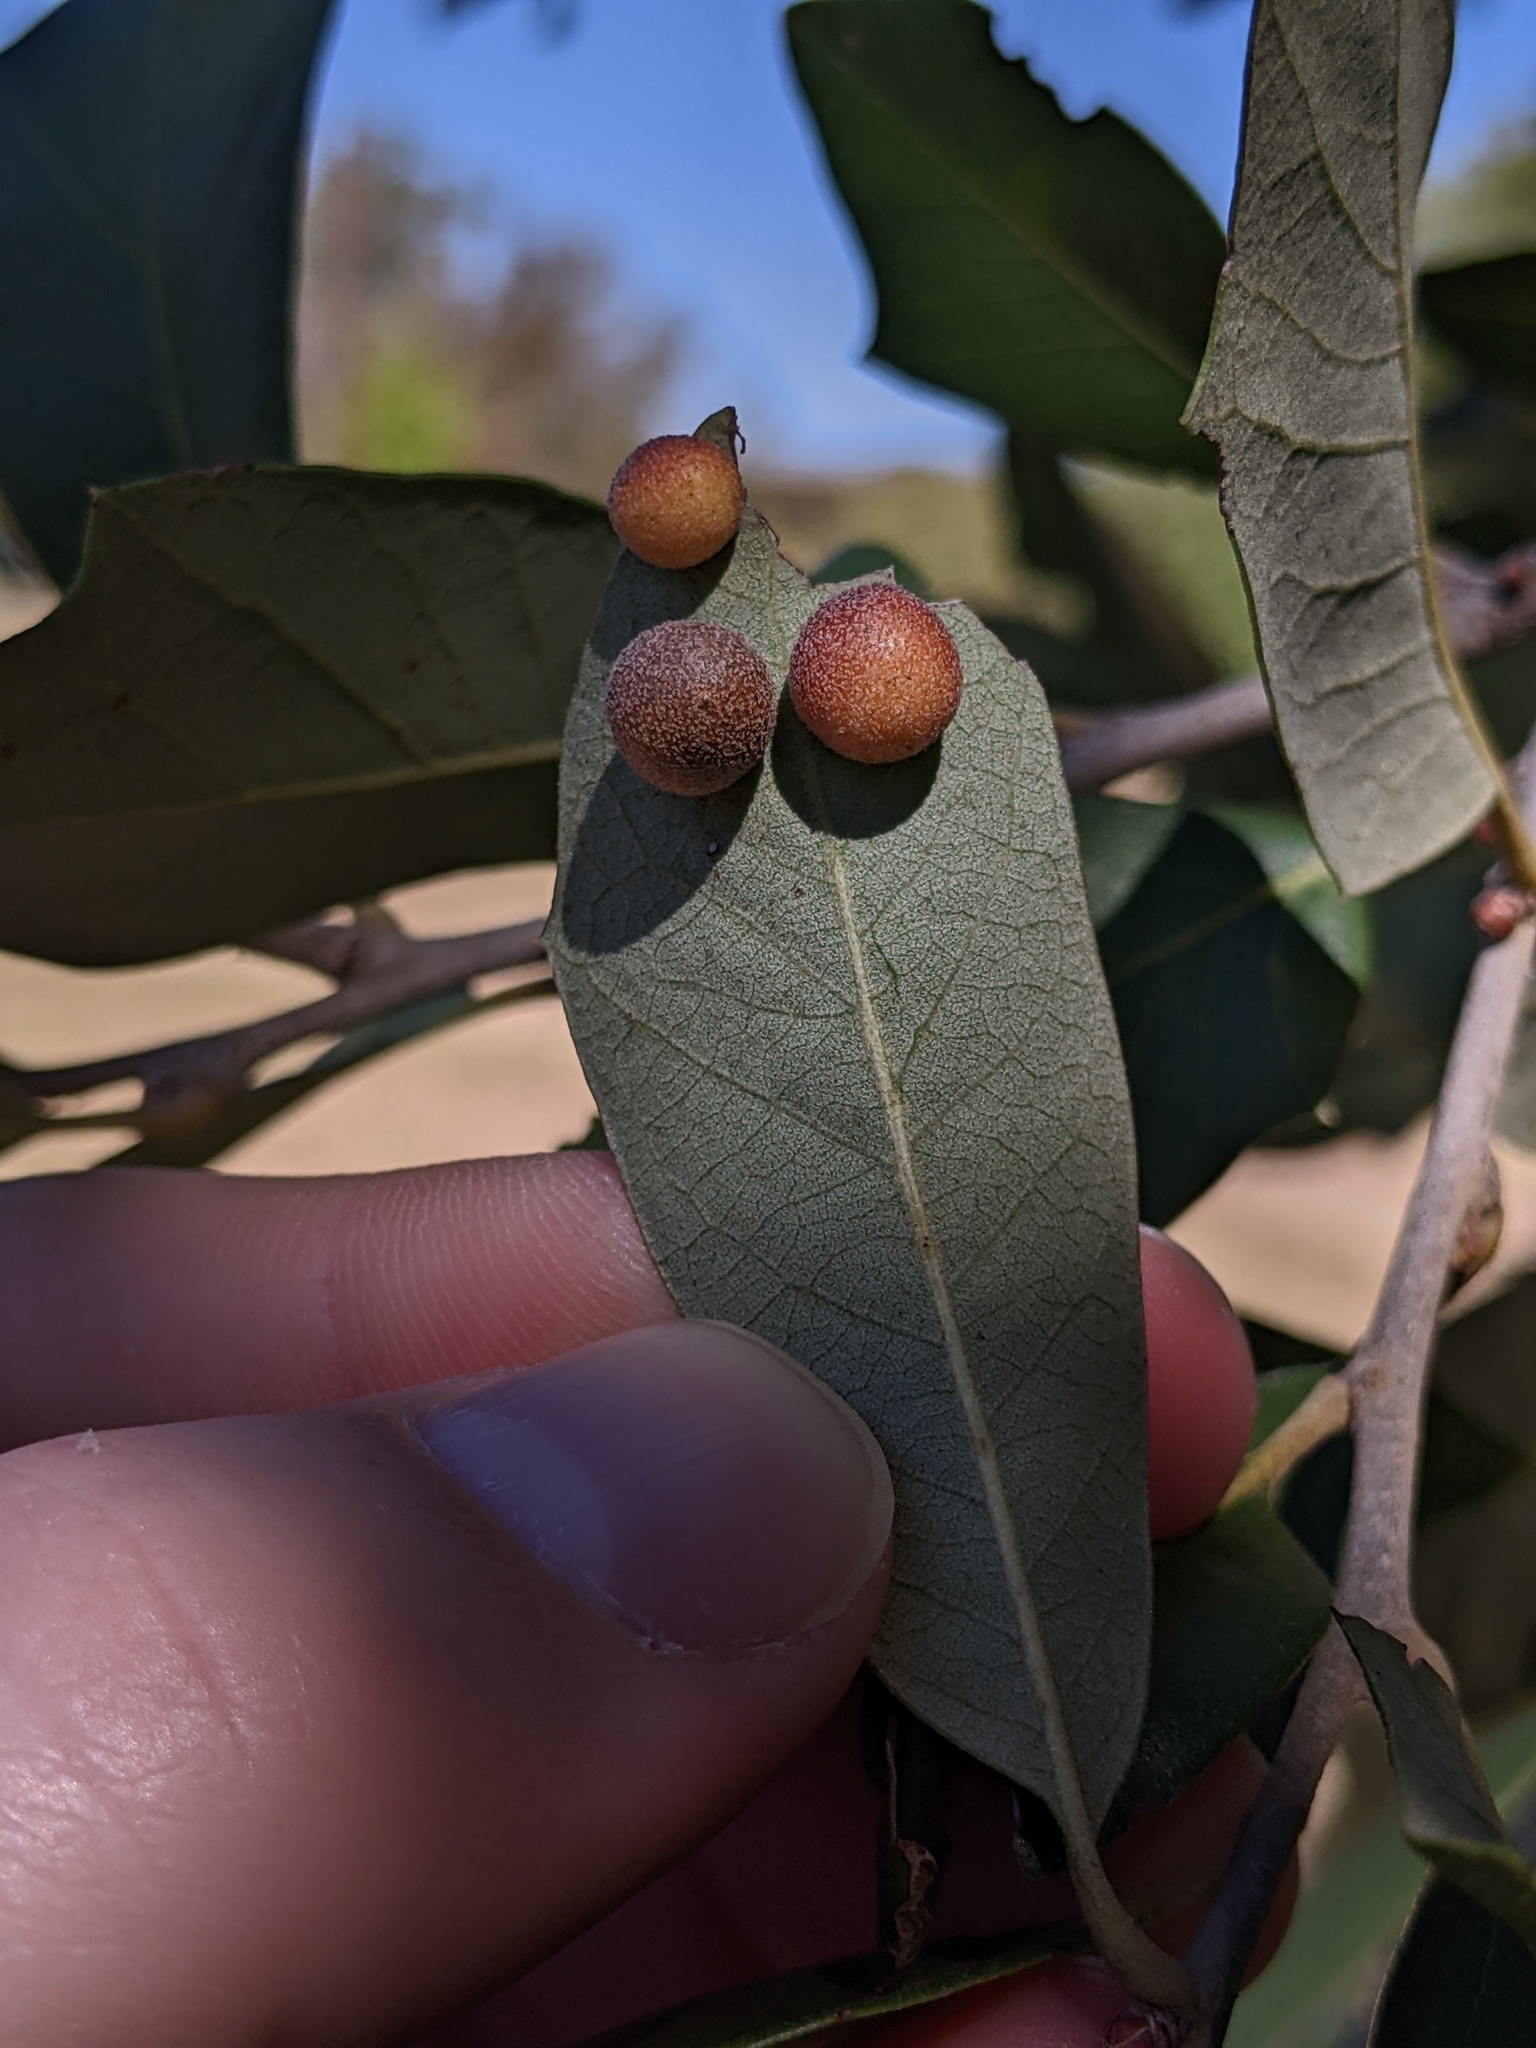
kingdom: Animalia
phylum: Arthropoda
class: Insecta
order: Hymenoptera
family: Cynipidae
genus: Belonocnema
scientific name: Belonocnema kinseyi
